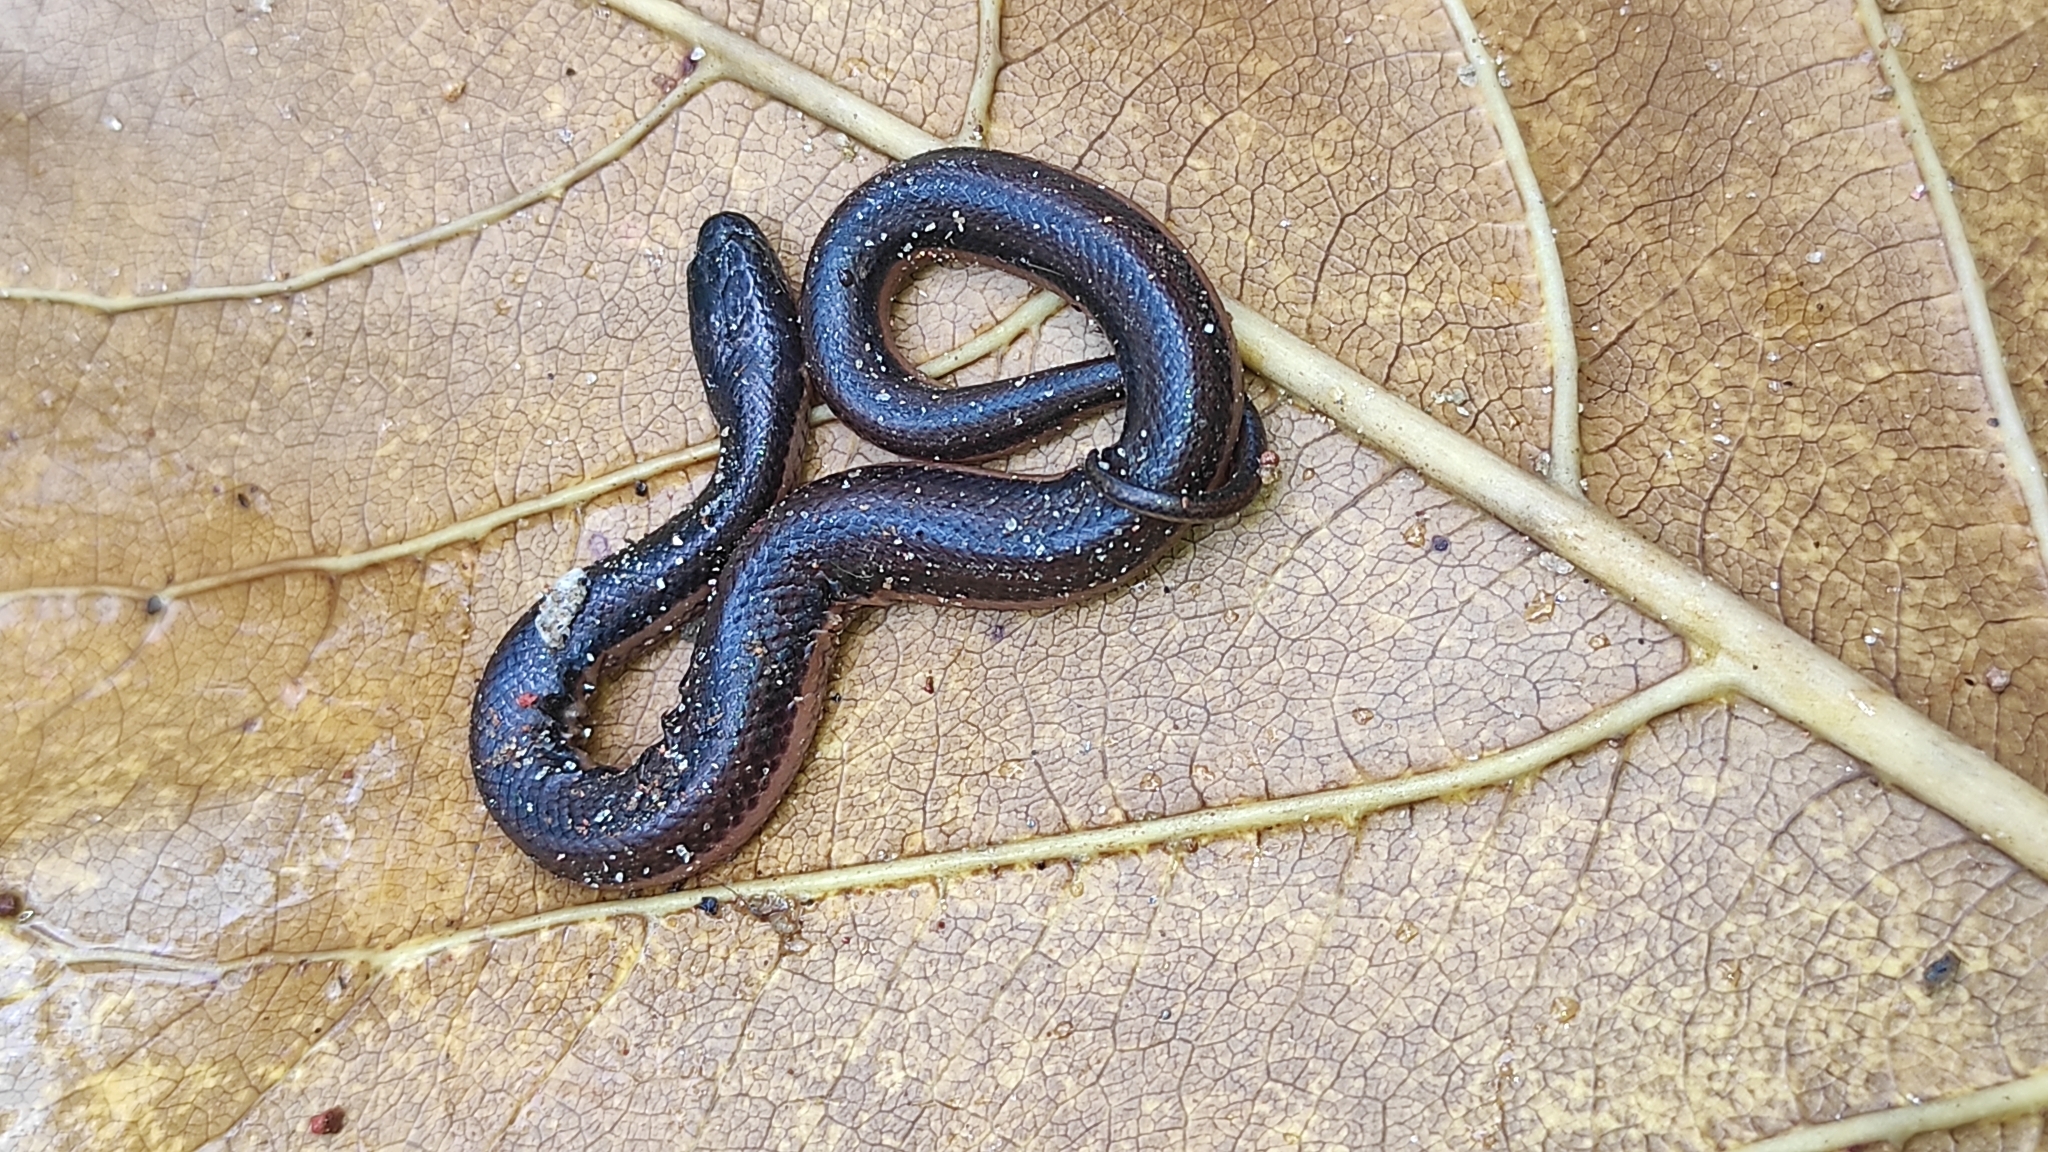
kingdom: Animalia
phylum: Chordata
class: Squamata
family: Homalopsidae
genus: Dieurostus
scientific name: Dieurostus dussumieri
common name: Dussumier's water snake
